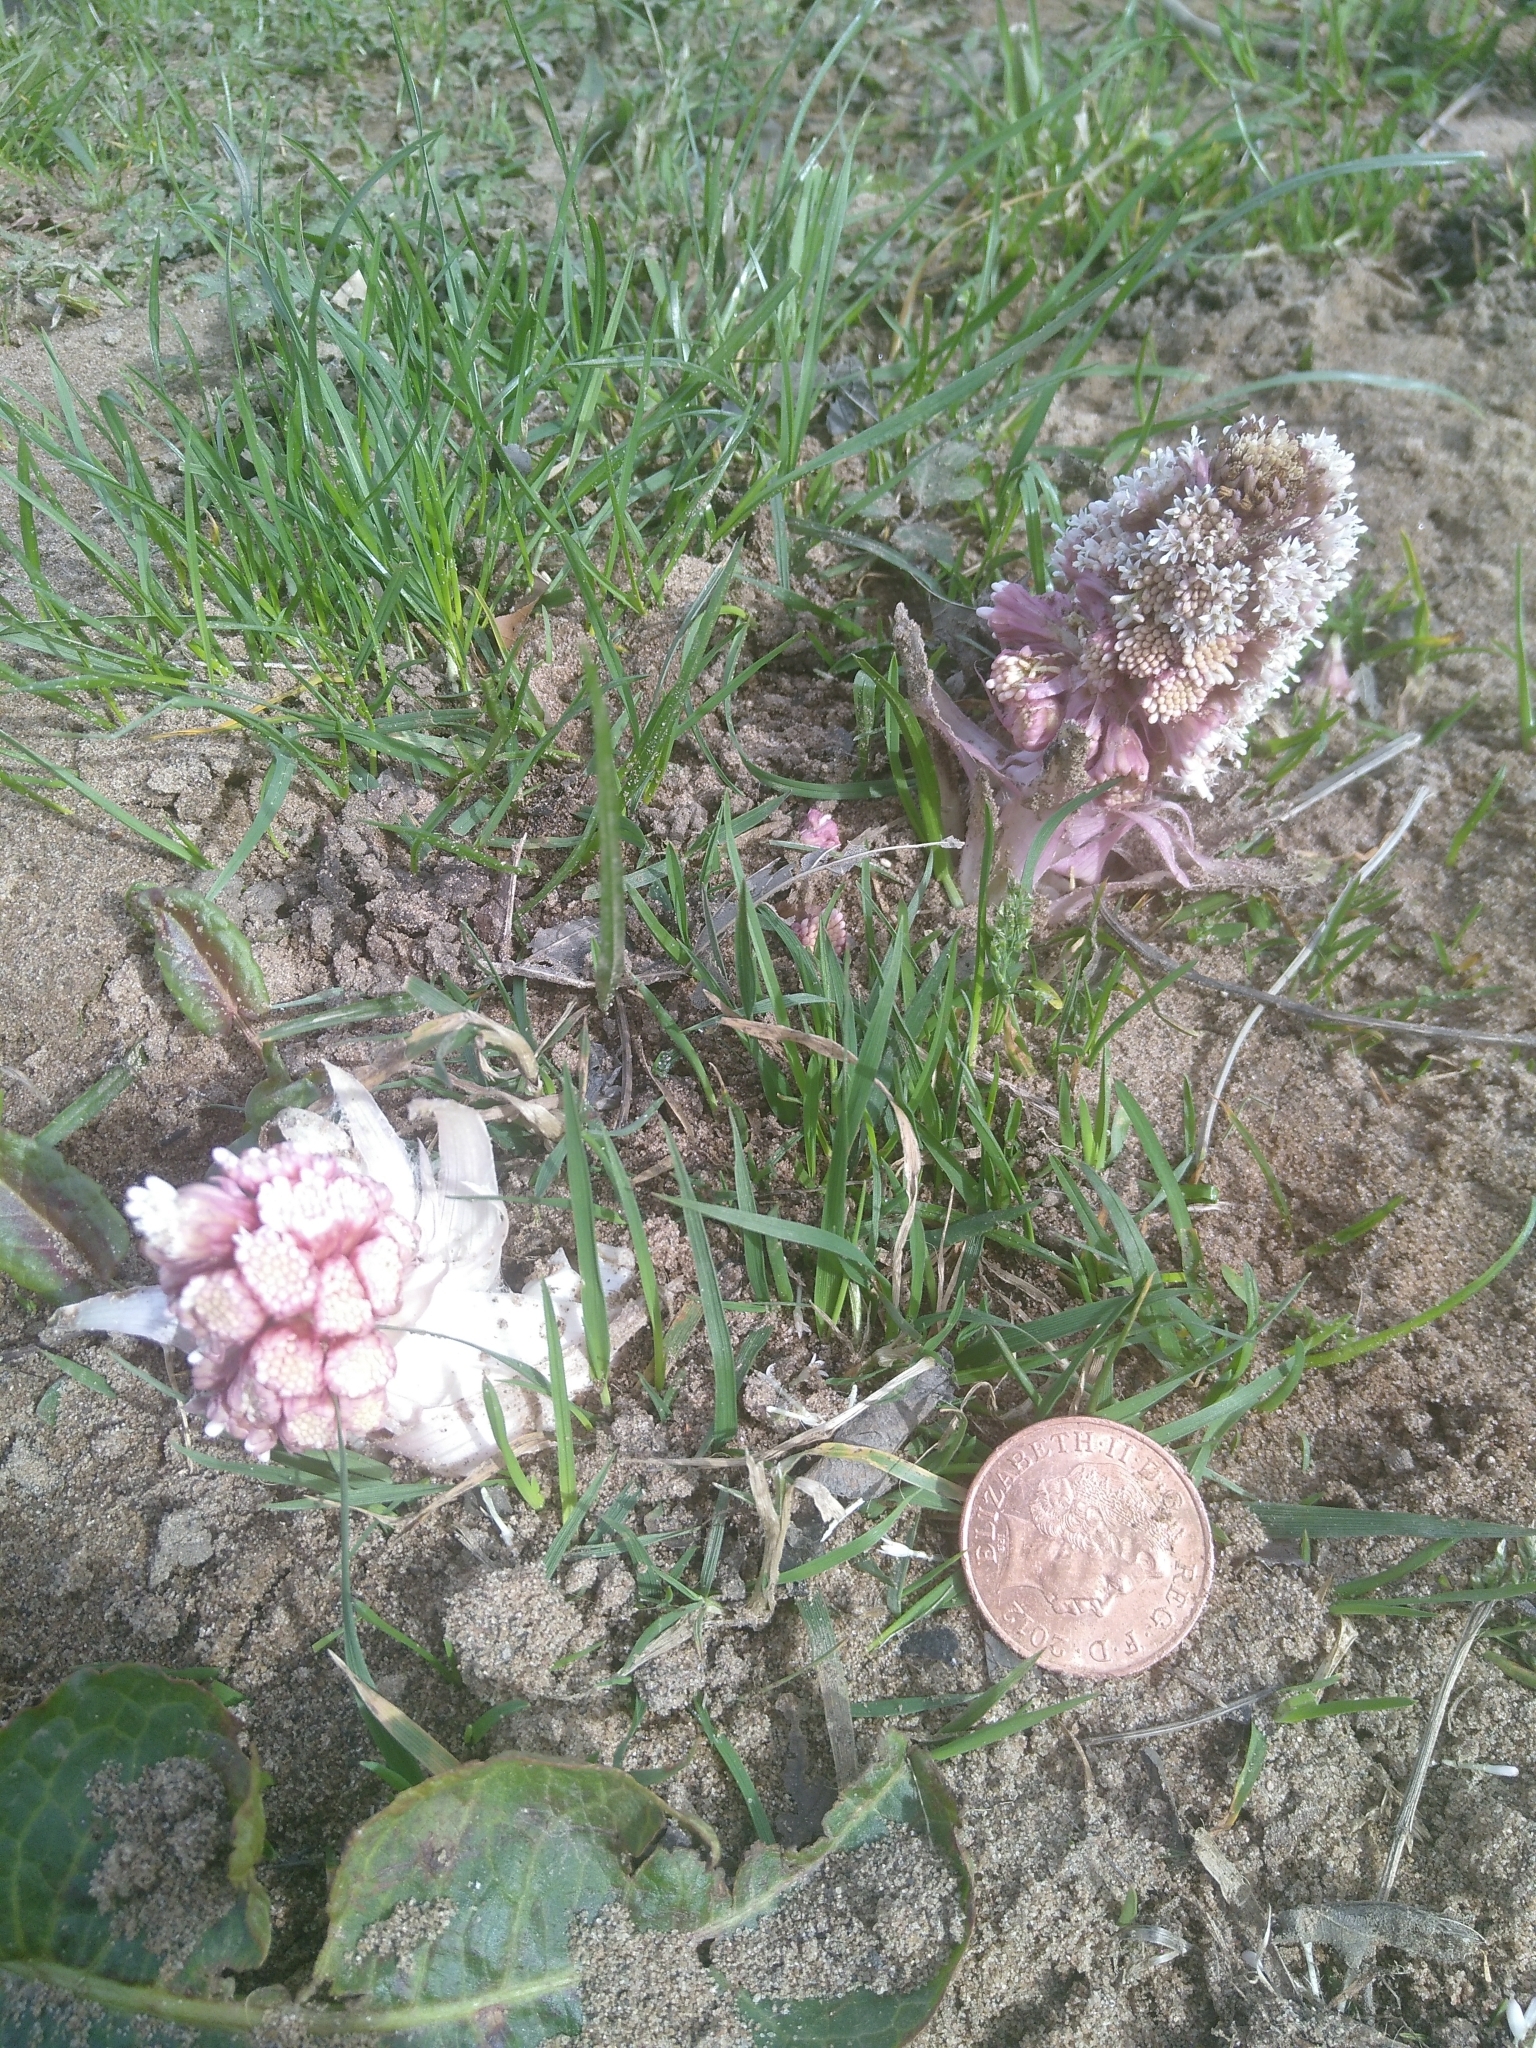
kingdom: Plantae
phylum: Tracheophyta
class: Magnoliopsida
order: Asterales
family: Asteraceae
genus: Petasites
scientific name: Petasites hybridus
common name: Butterbur
